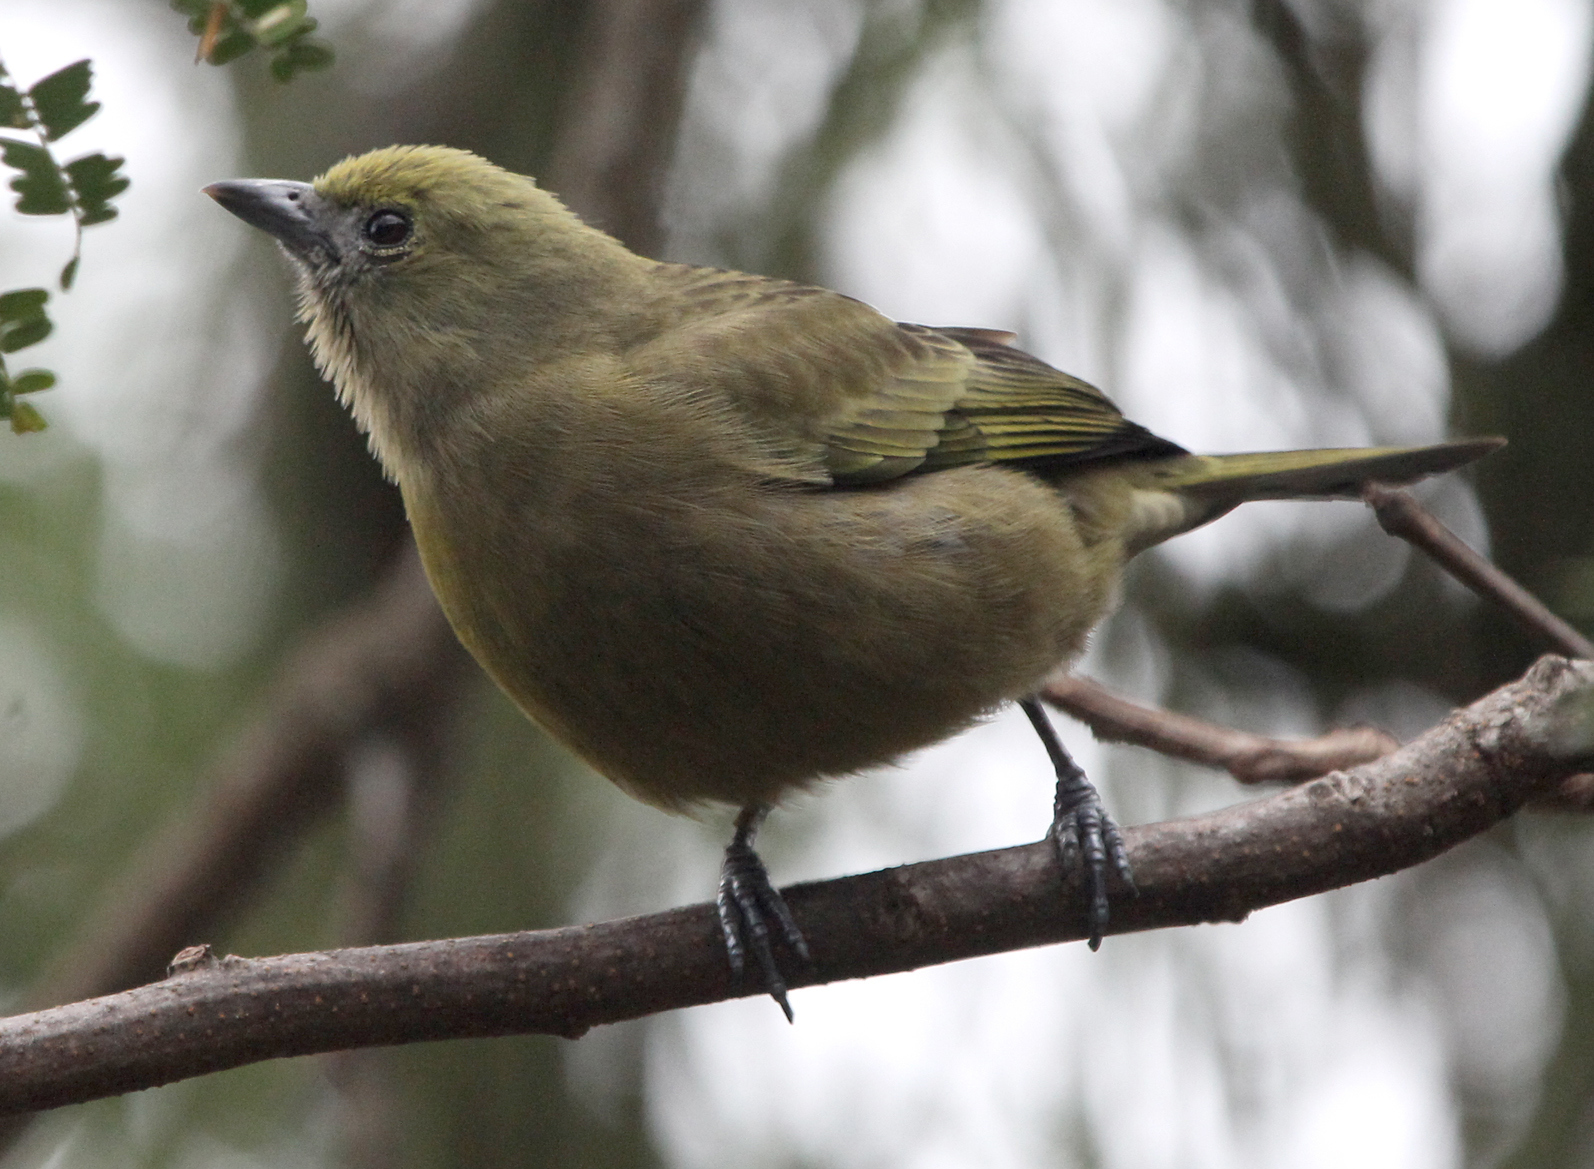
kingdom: Animalia
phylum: Chordata
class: Aves
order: Passeriformes
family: Thraupidae
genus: Thraupis
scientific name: Thraupis palmarum
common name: Palm tanager
